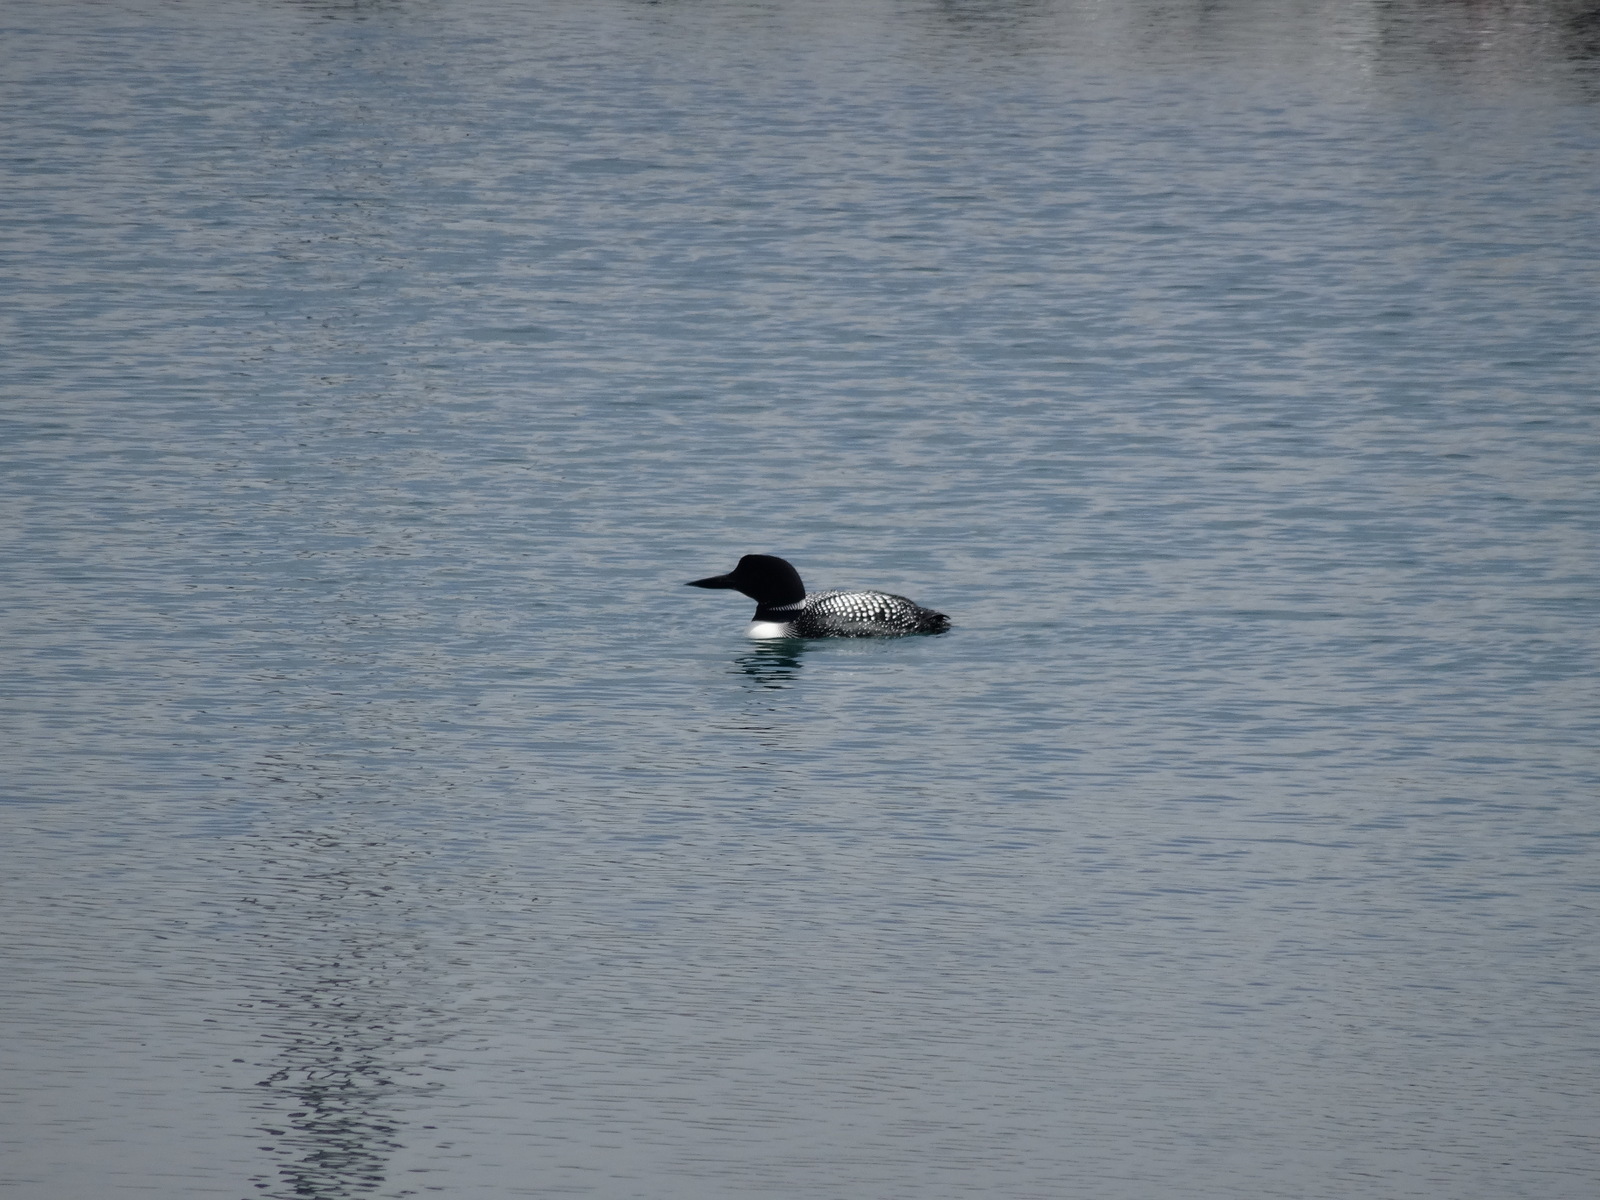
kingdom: Animalia
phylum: Chordata
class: Aves
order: Gaviiformes
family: Gaviidae
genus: Gavia
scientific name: Gavia immer
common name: Common loon
